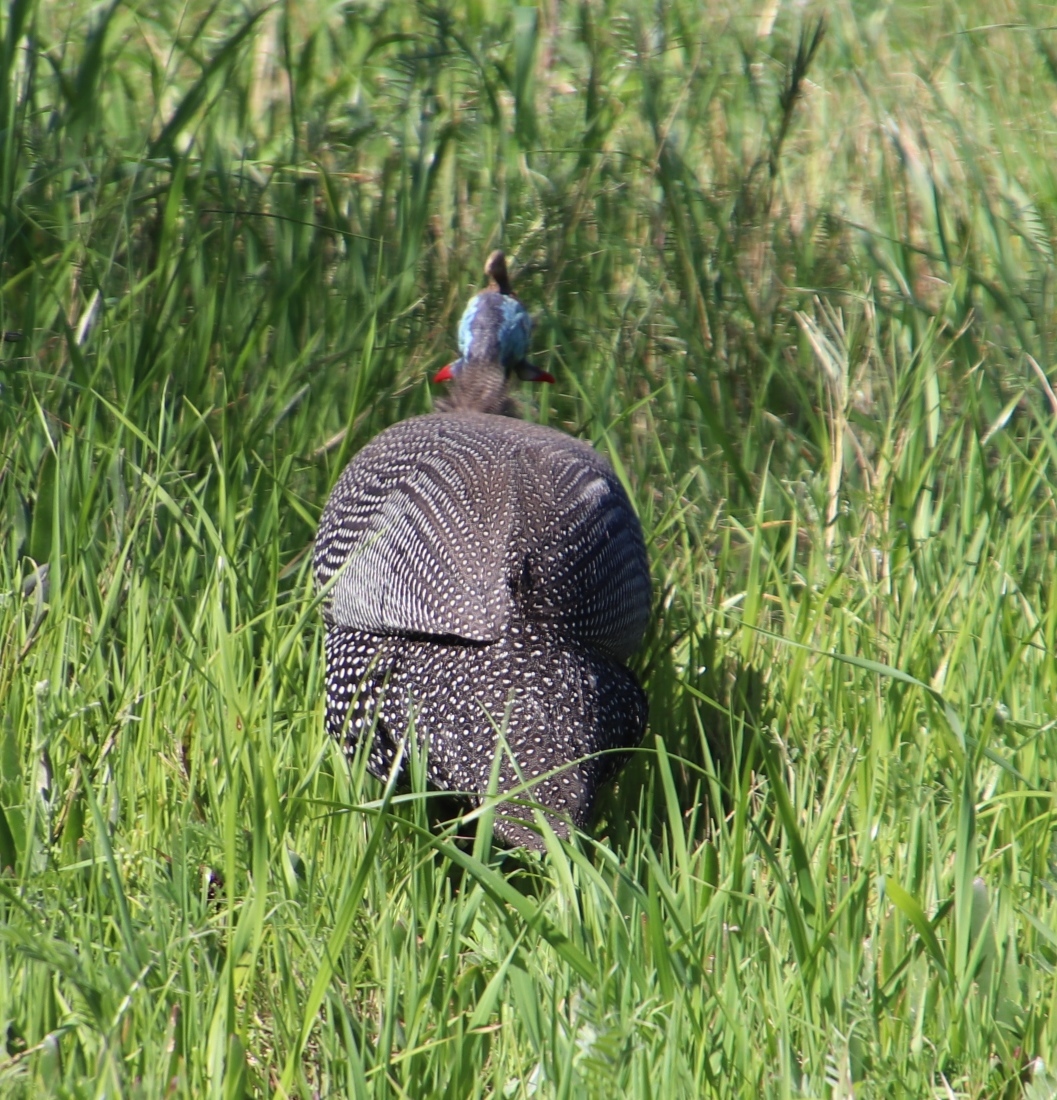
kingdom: Animalia
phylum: Chordata
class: Aves
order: Galliformes
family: Numididae
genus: Numida
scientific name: Numida meleagris
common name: Helmeted guineafowl
